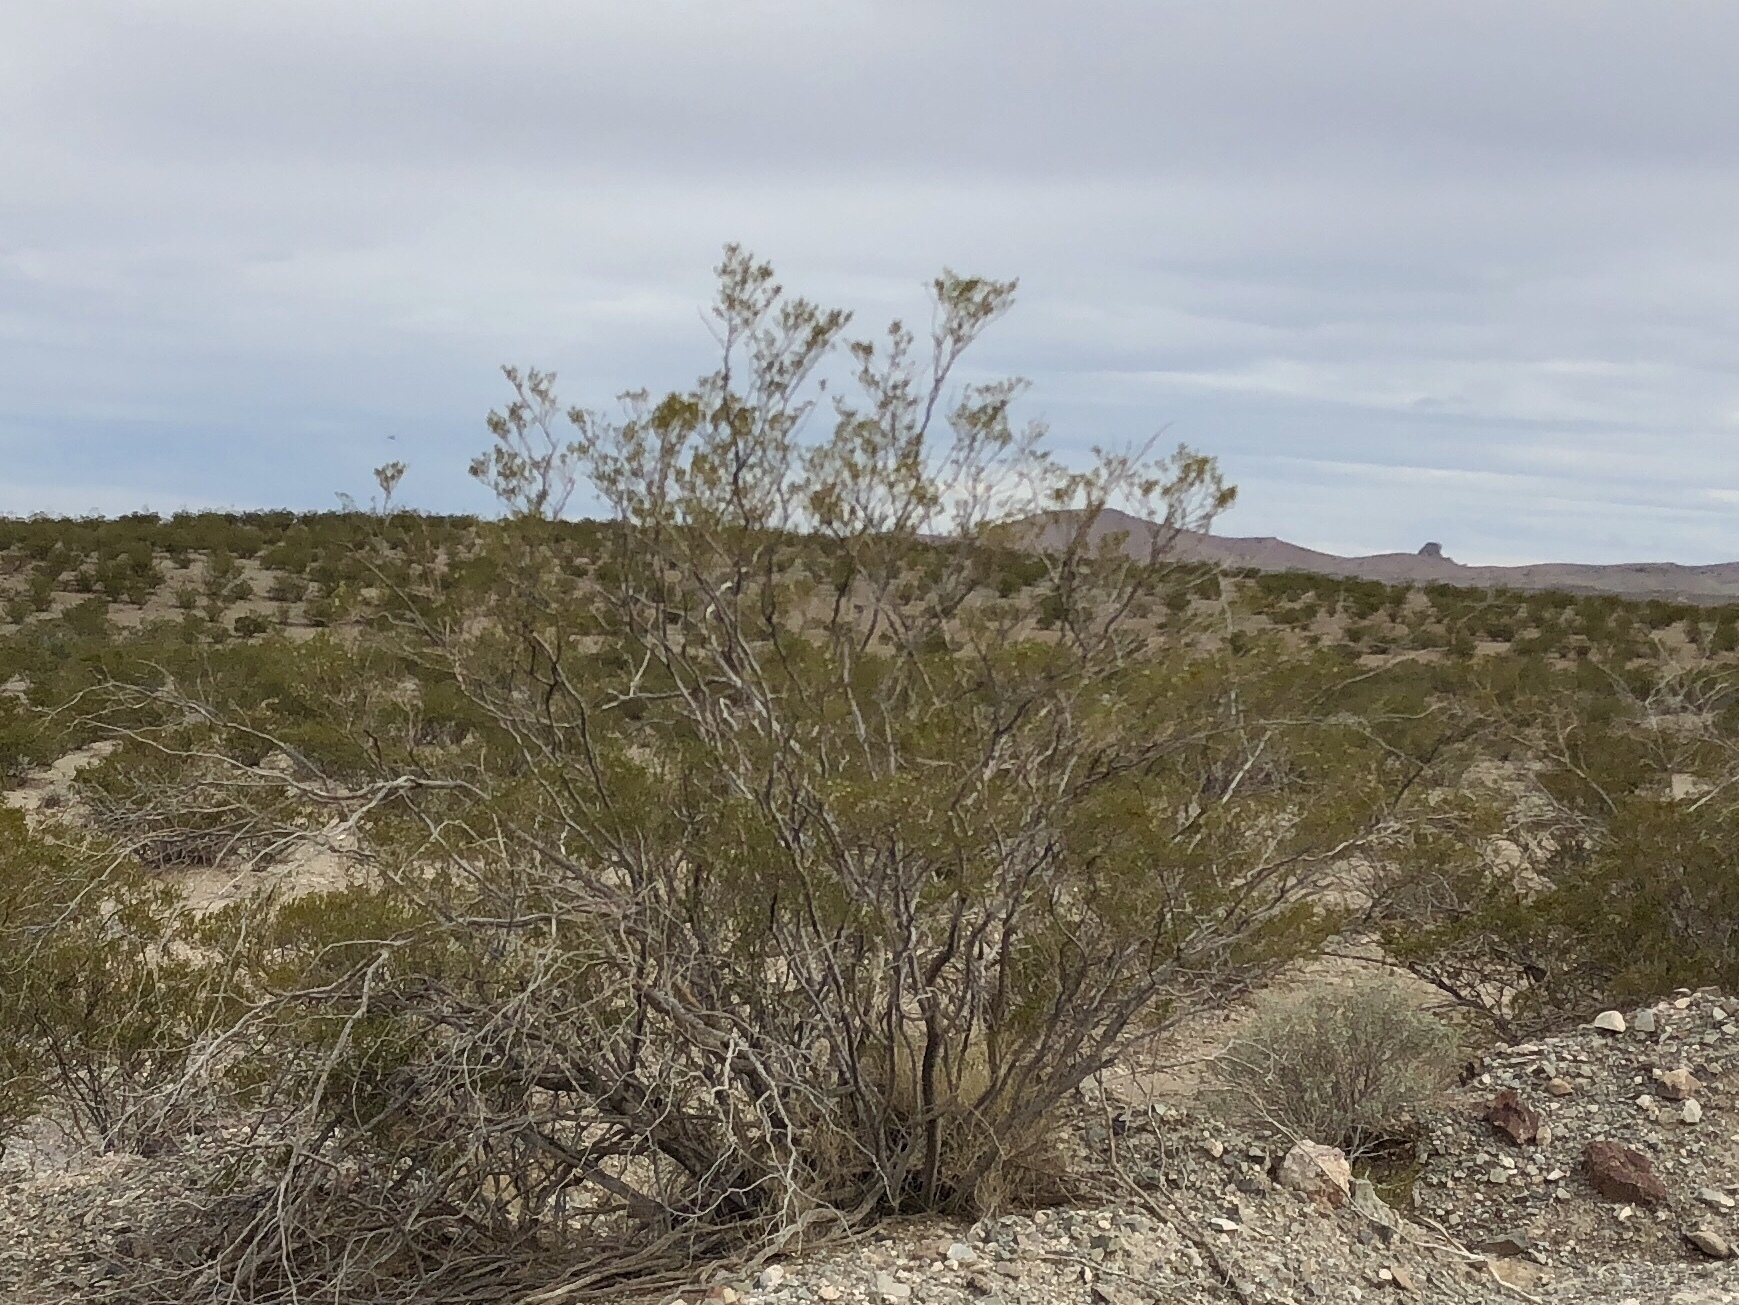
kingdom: Plantae
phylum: Tracheophyta
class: Magnoliopsida
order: Zygophyllales
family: Zygophyllaceae
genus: Larrea
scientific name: Larrea tridentata
